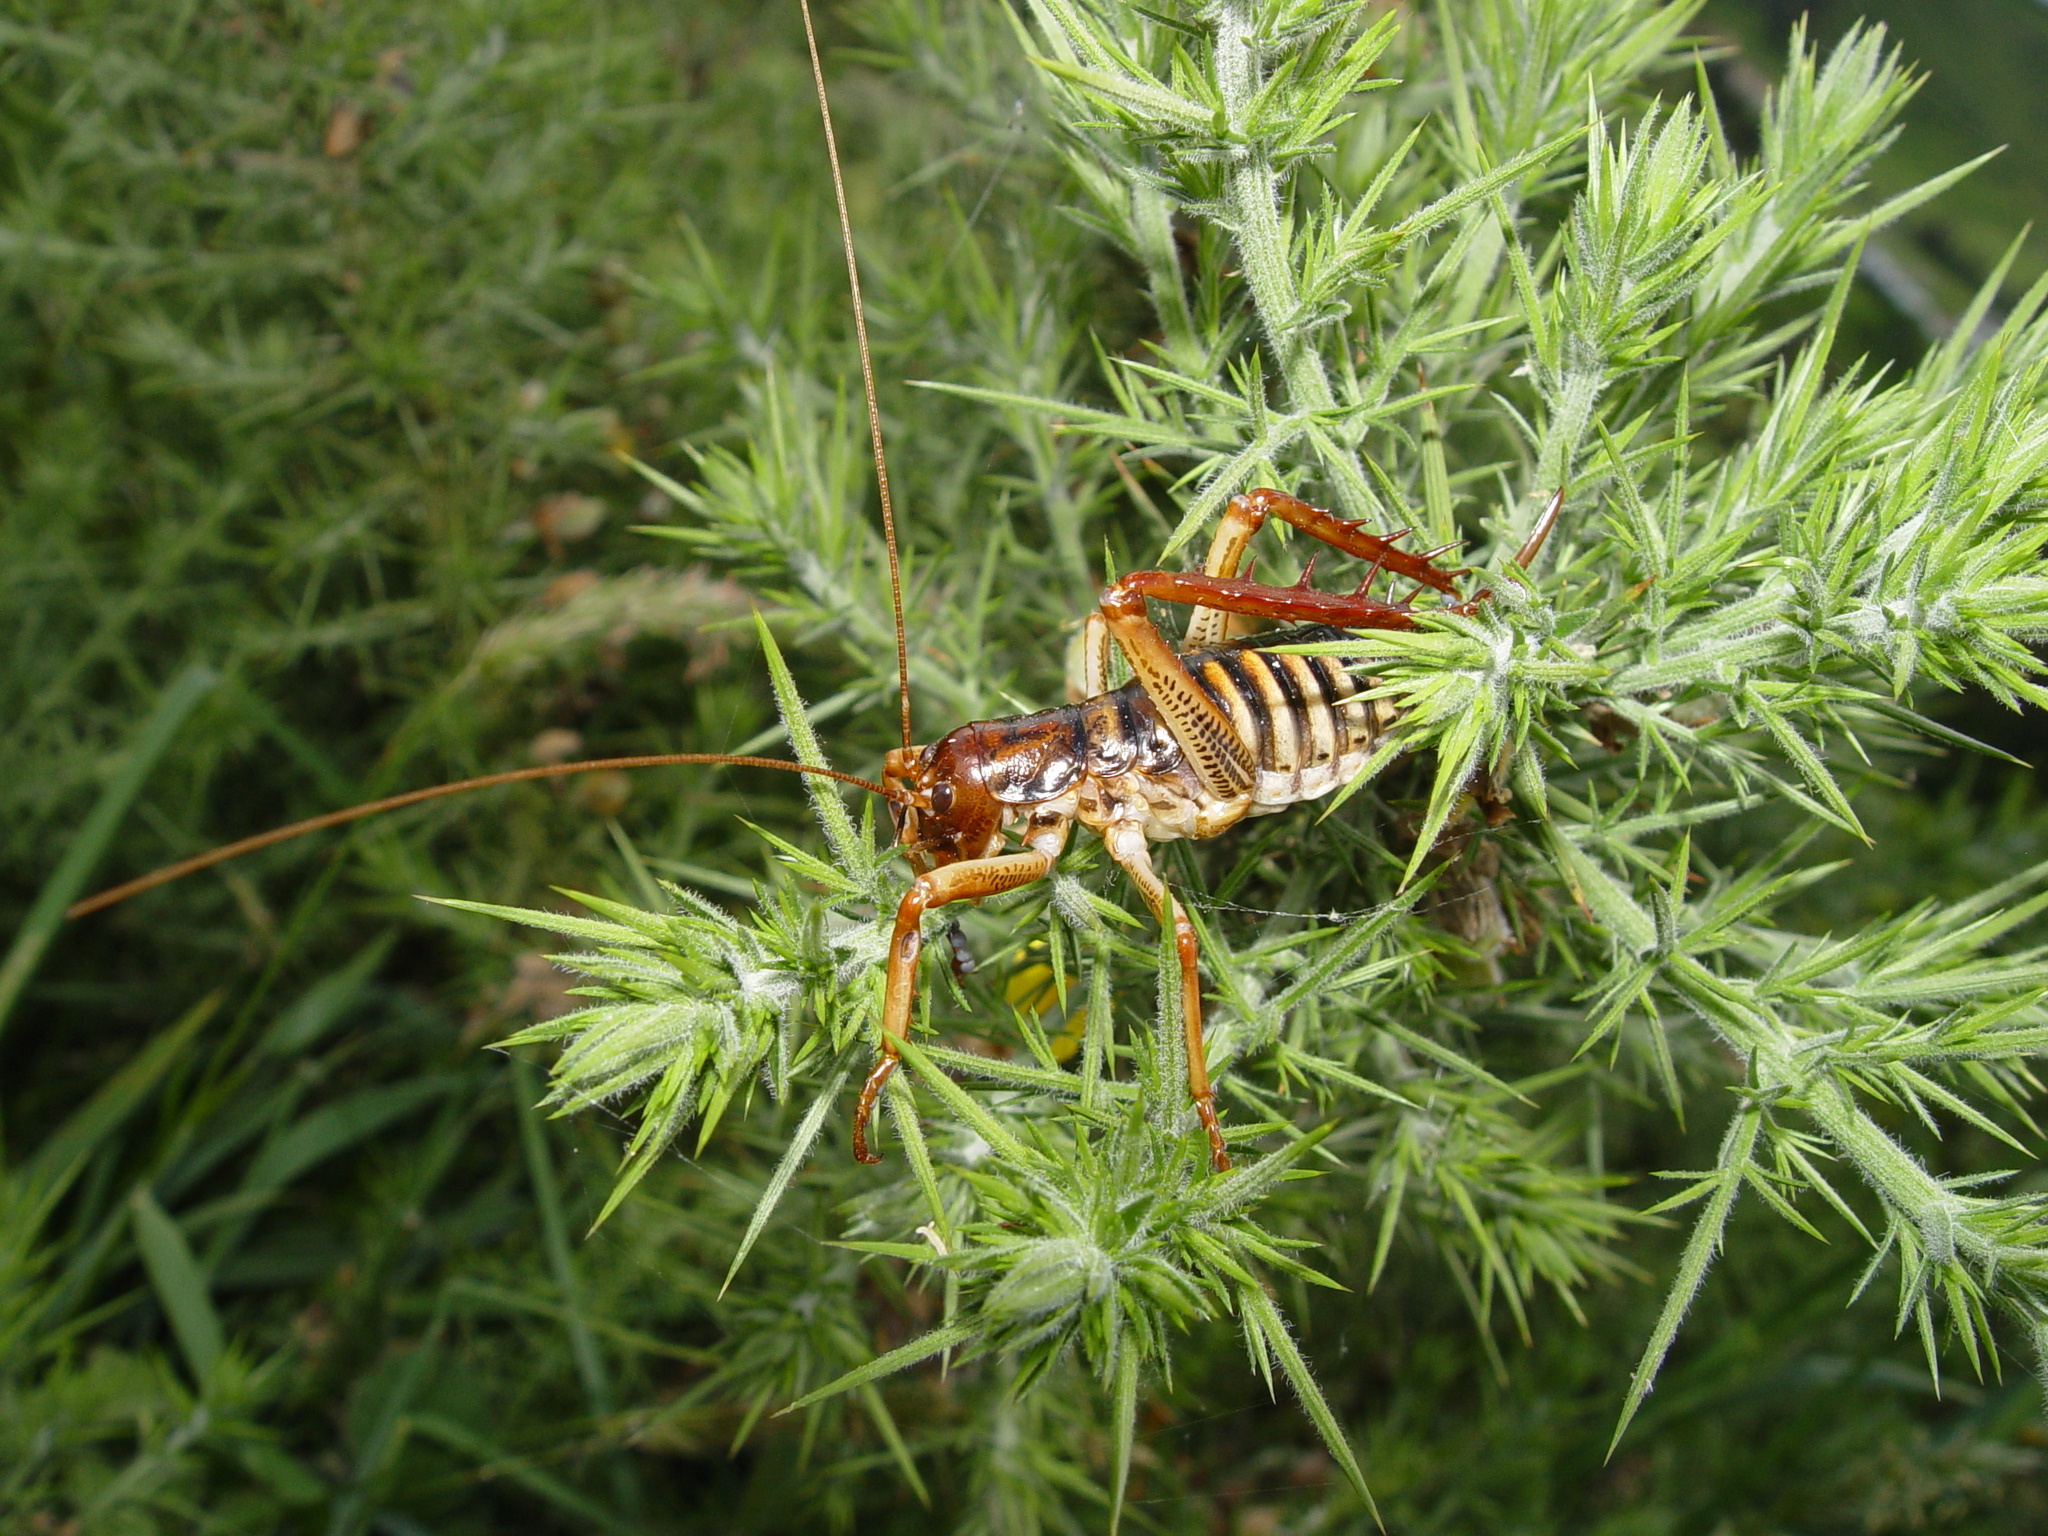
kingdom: Animalia
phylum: Arthropoda
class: Insecta
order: Orthoptera
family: Anostostomatidae
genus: Hemideina
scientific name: Hemideina crassidens
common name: Wellington tree weta
